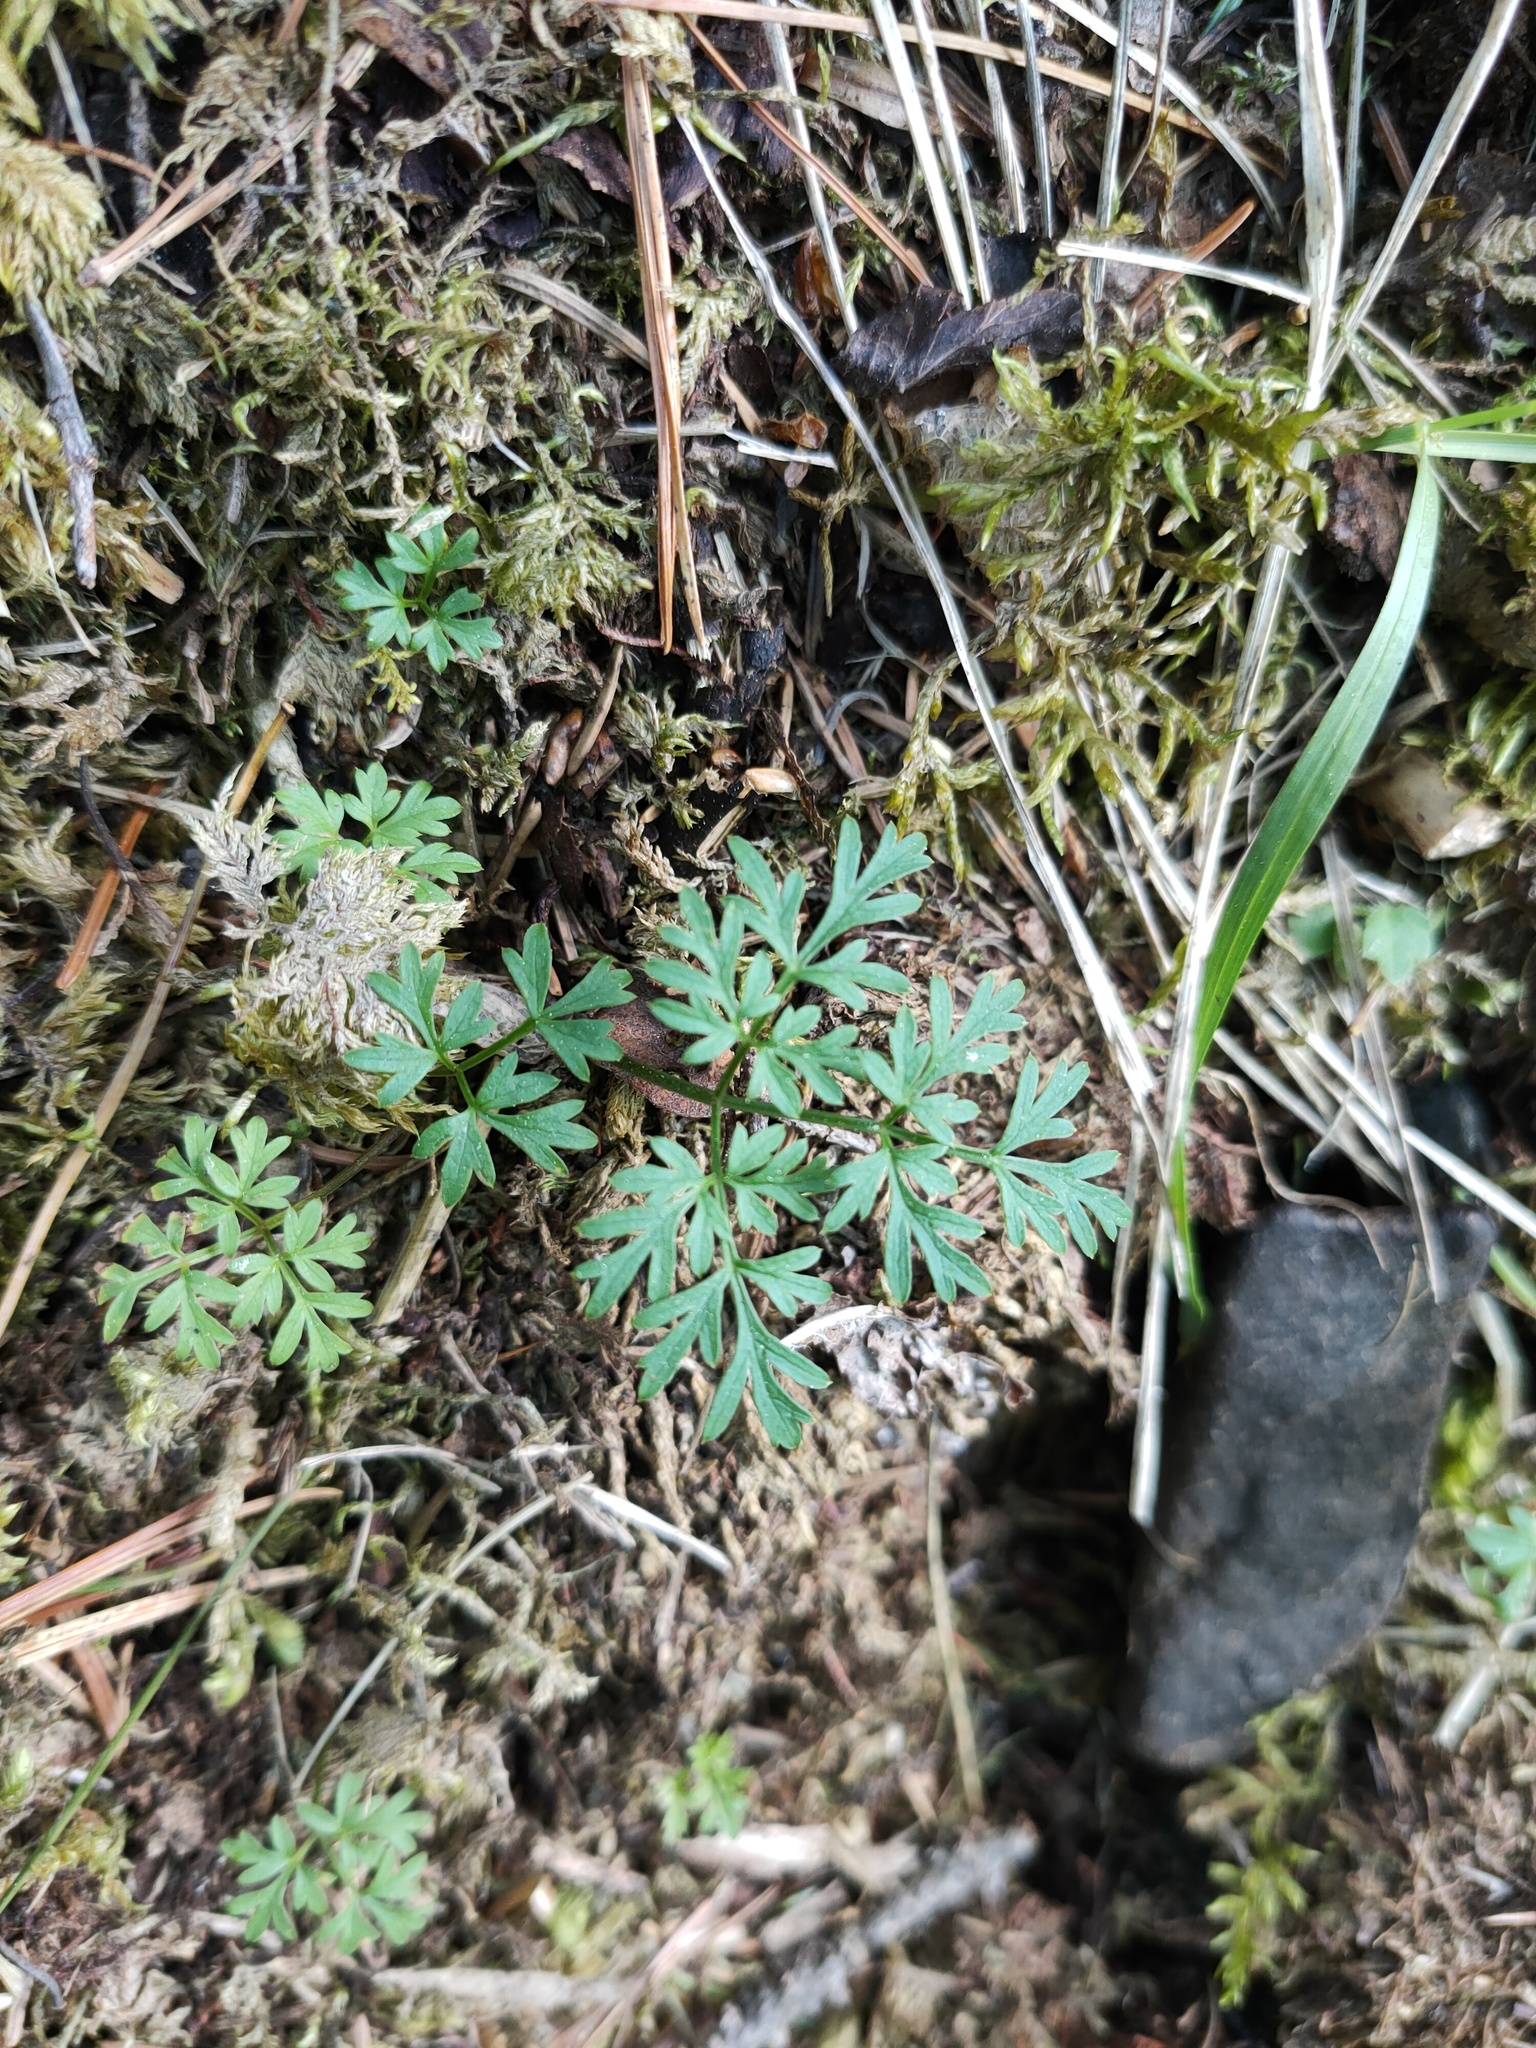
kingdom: Plantae
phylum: Tracheophyta
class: Magnoliopsida
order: Apiales
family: Apiaceae
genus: Aegopodium
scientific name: Aegopodium alpestre
